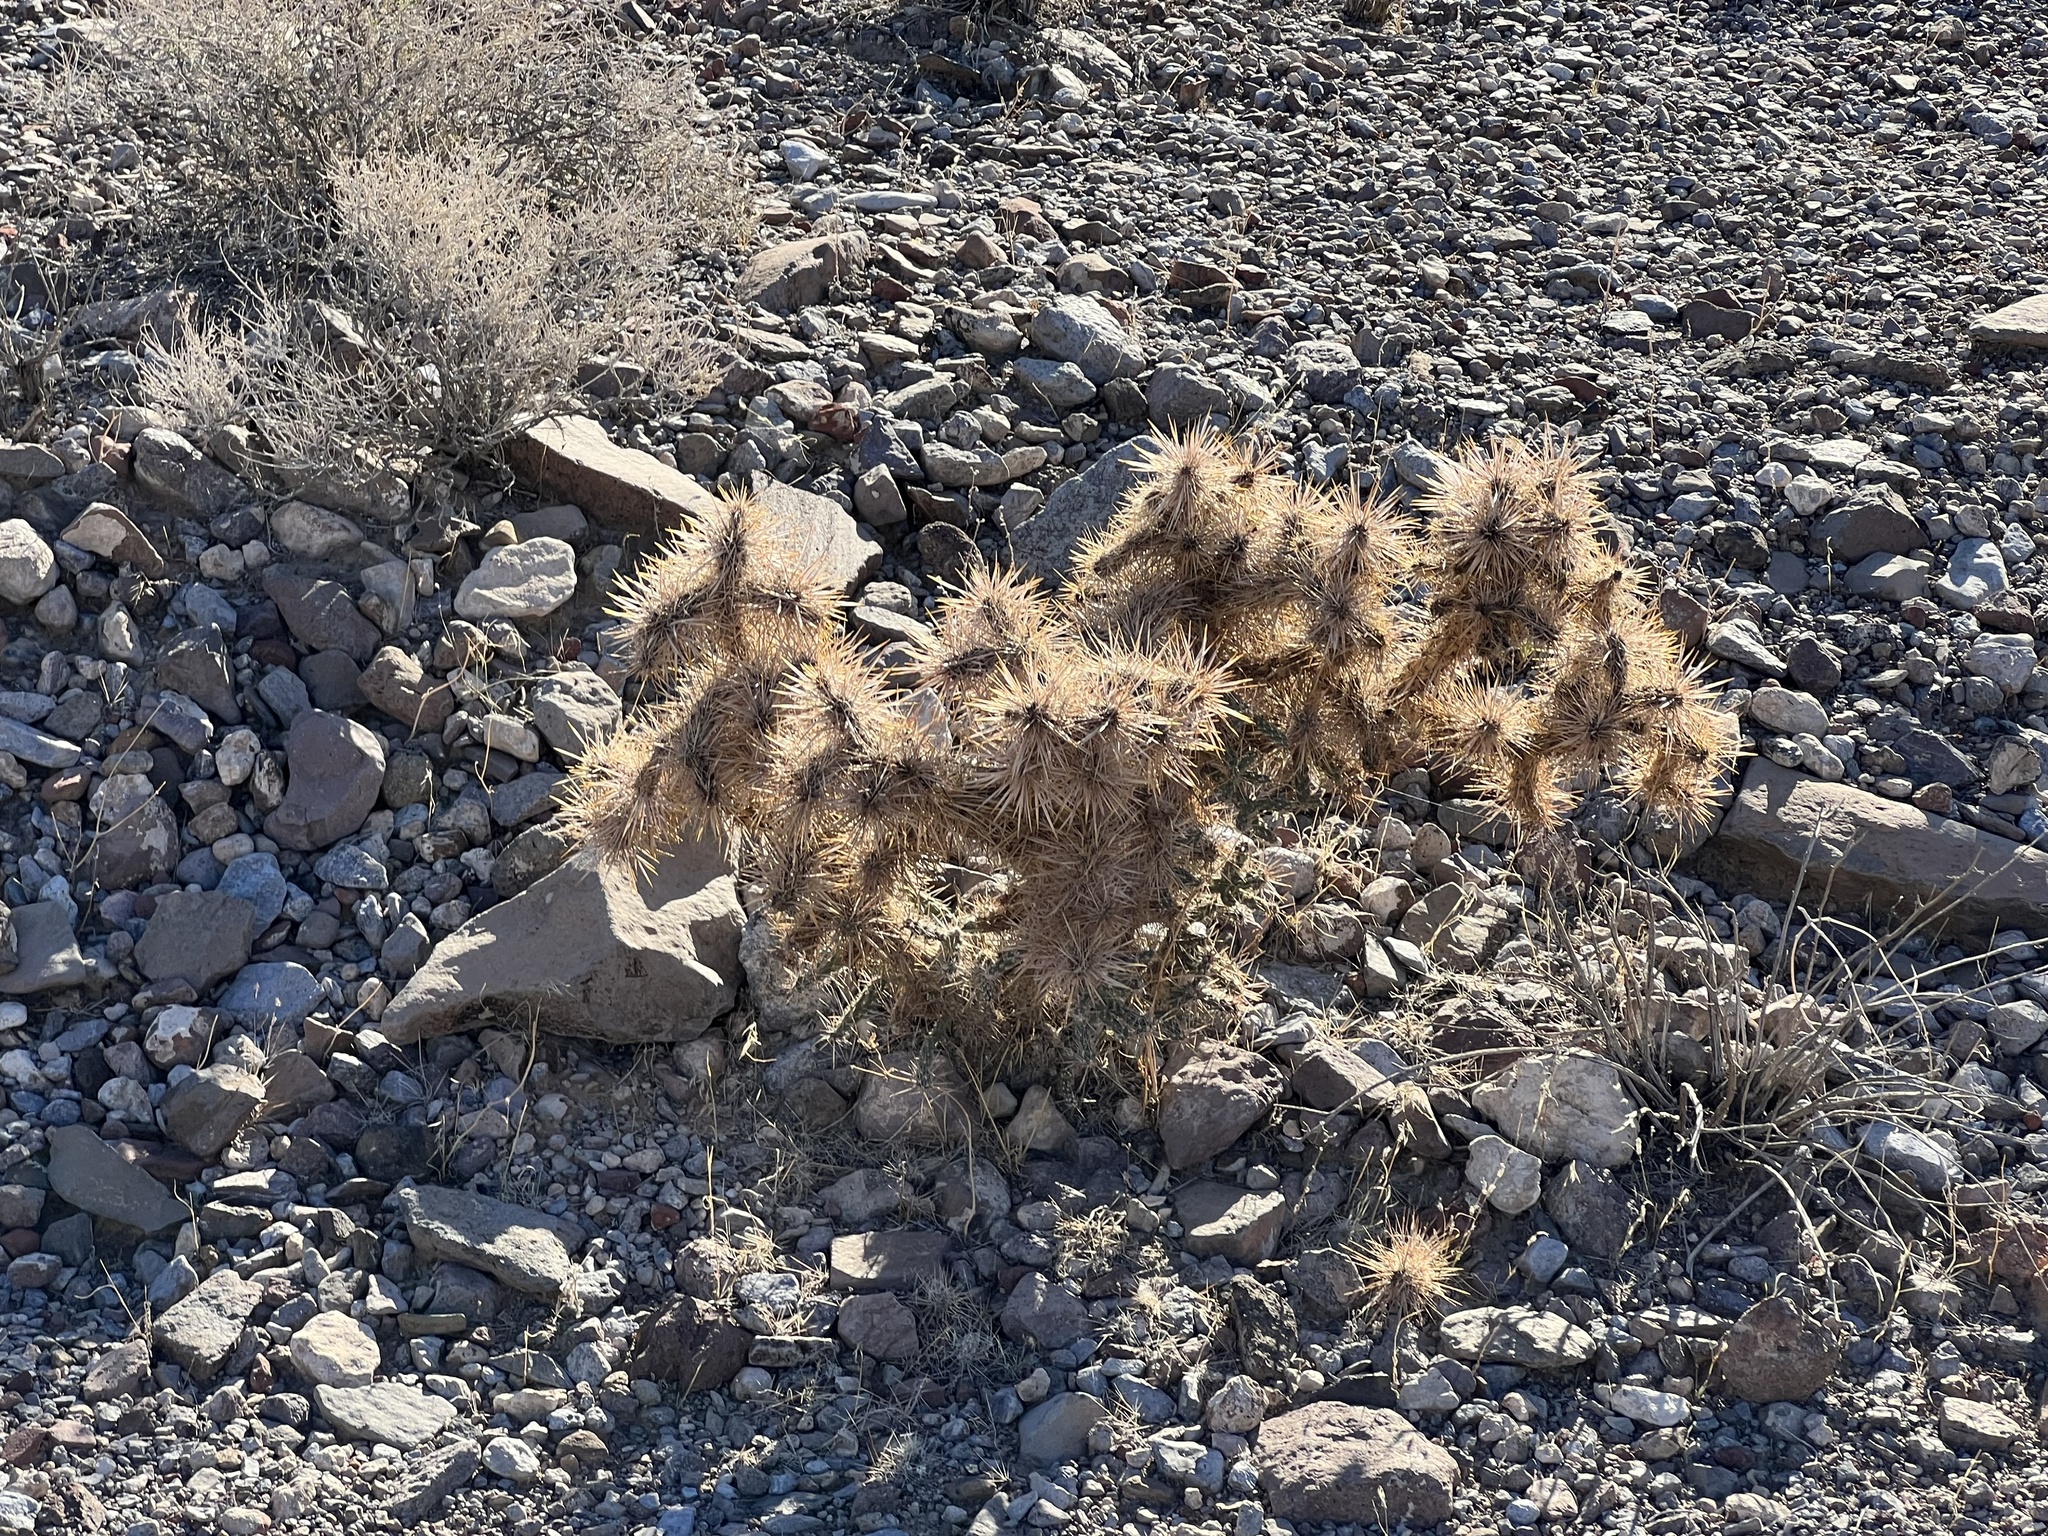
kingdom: Plantae
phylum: Tracheophyta
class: Magnoliopsida
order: Caryophyllales
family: Cactaceae
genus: Cylindropuntia
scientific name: Cylindropuntia echinocarpa
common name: Ground cholla
